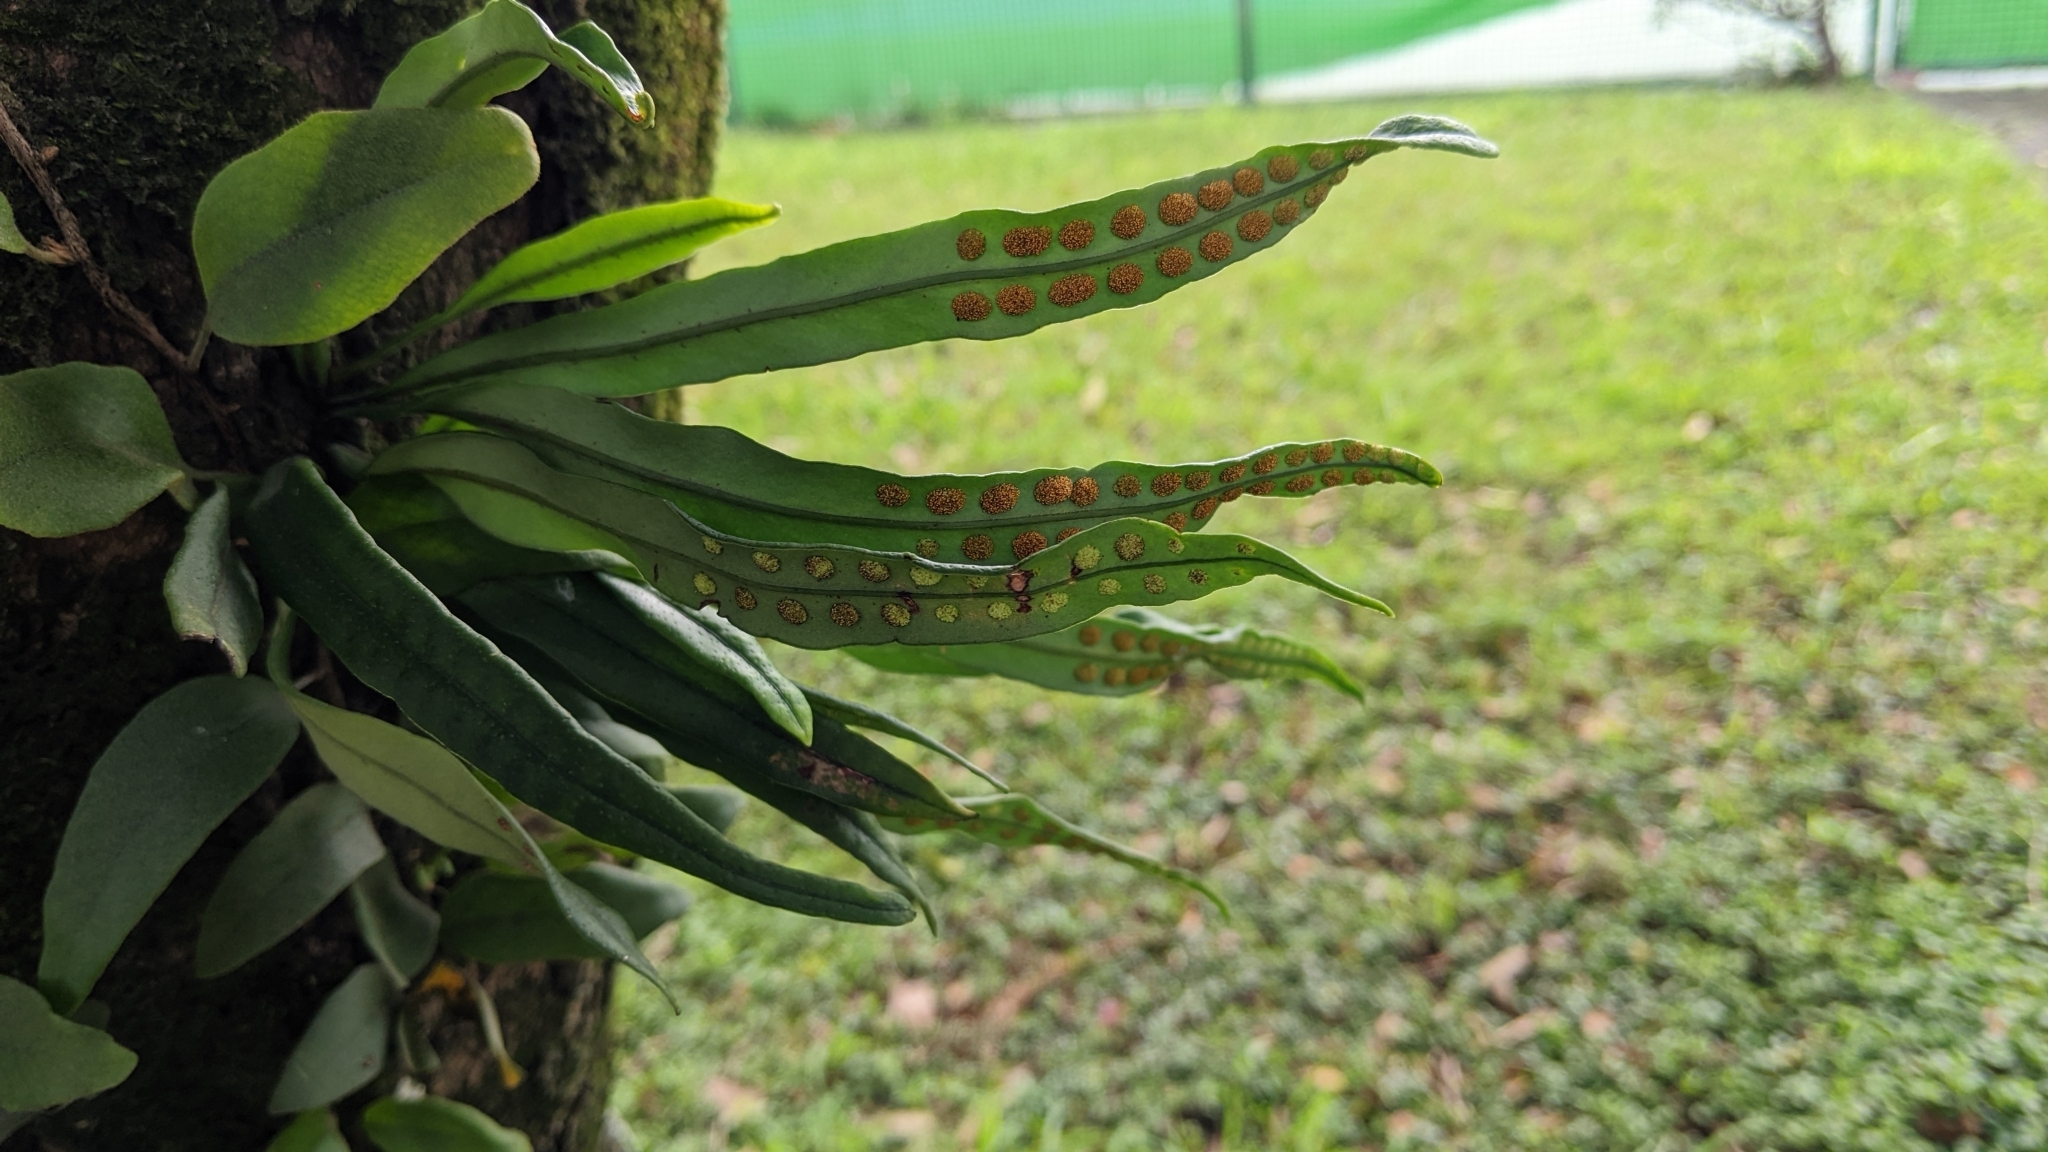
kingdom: Plantae
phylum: Tracheophyta
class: Polypodiopsida
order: Polypodiales
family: Polypodiaceae
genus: Lepisorus
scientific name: Lepisorus thunbergianus
